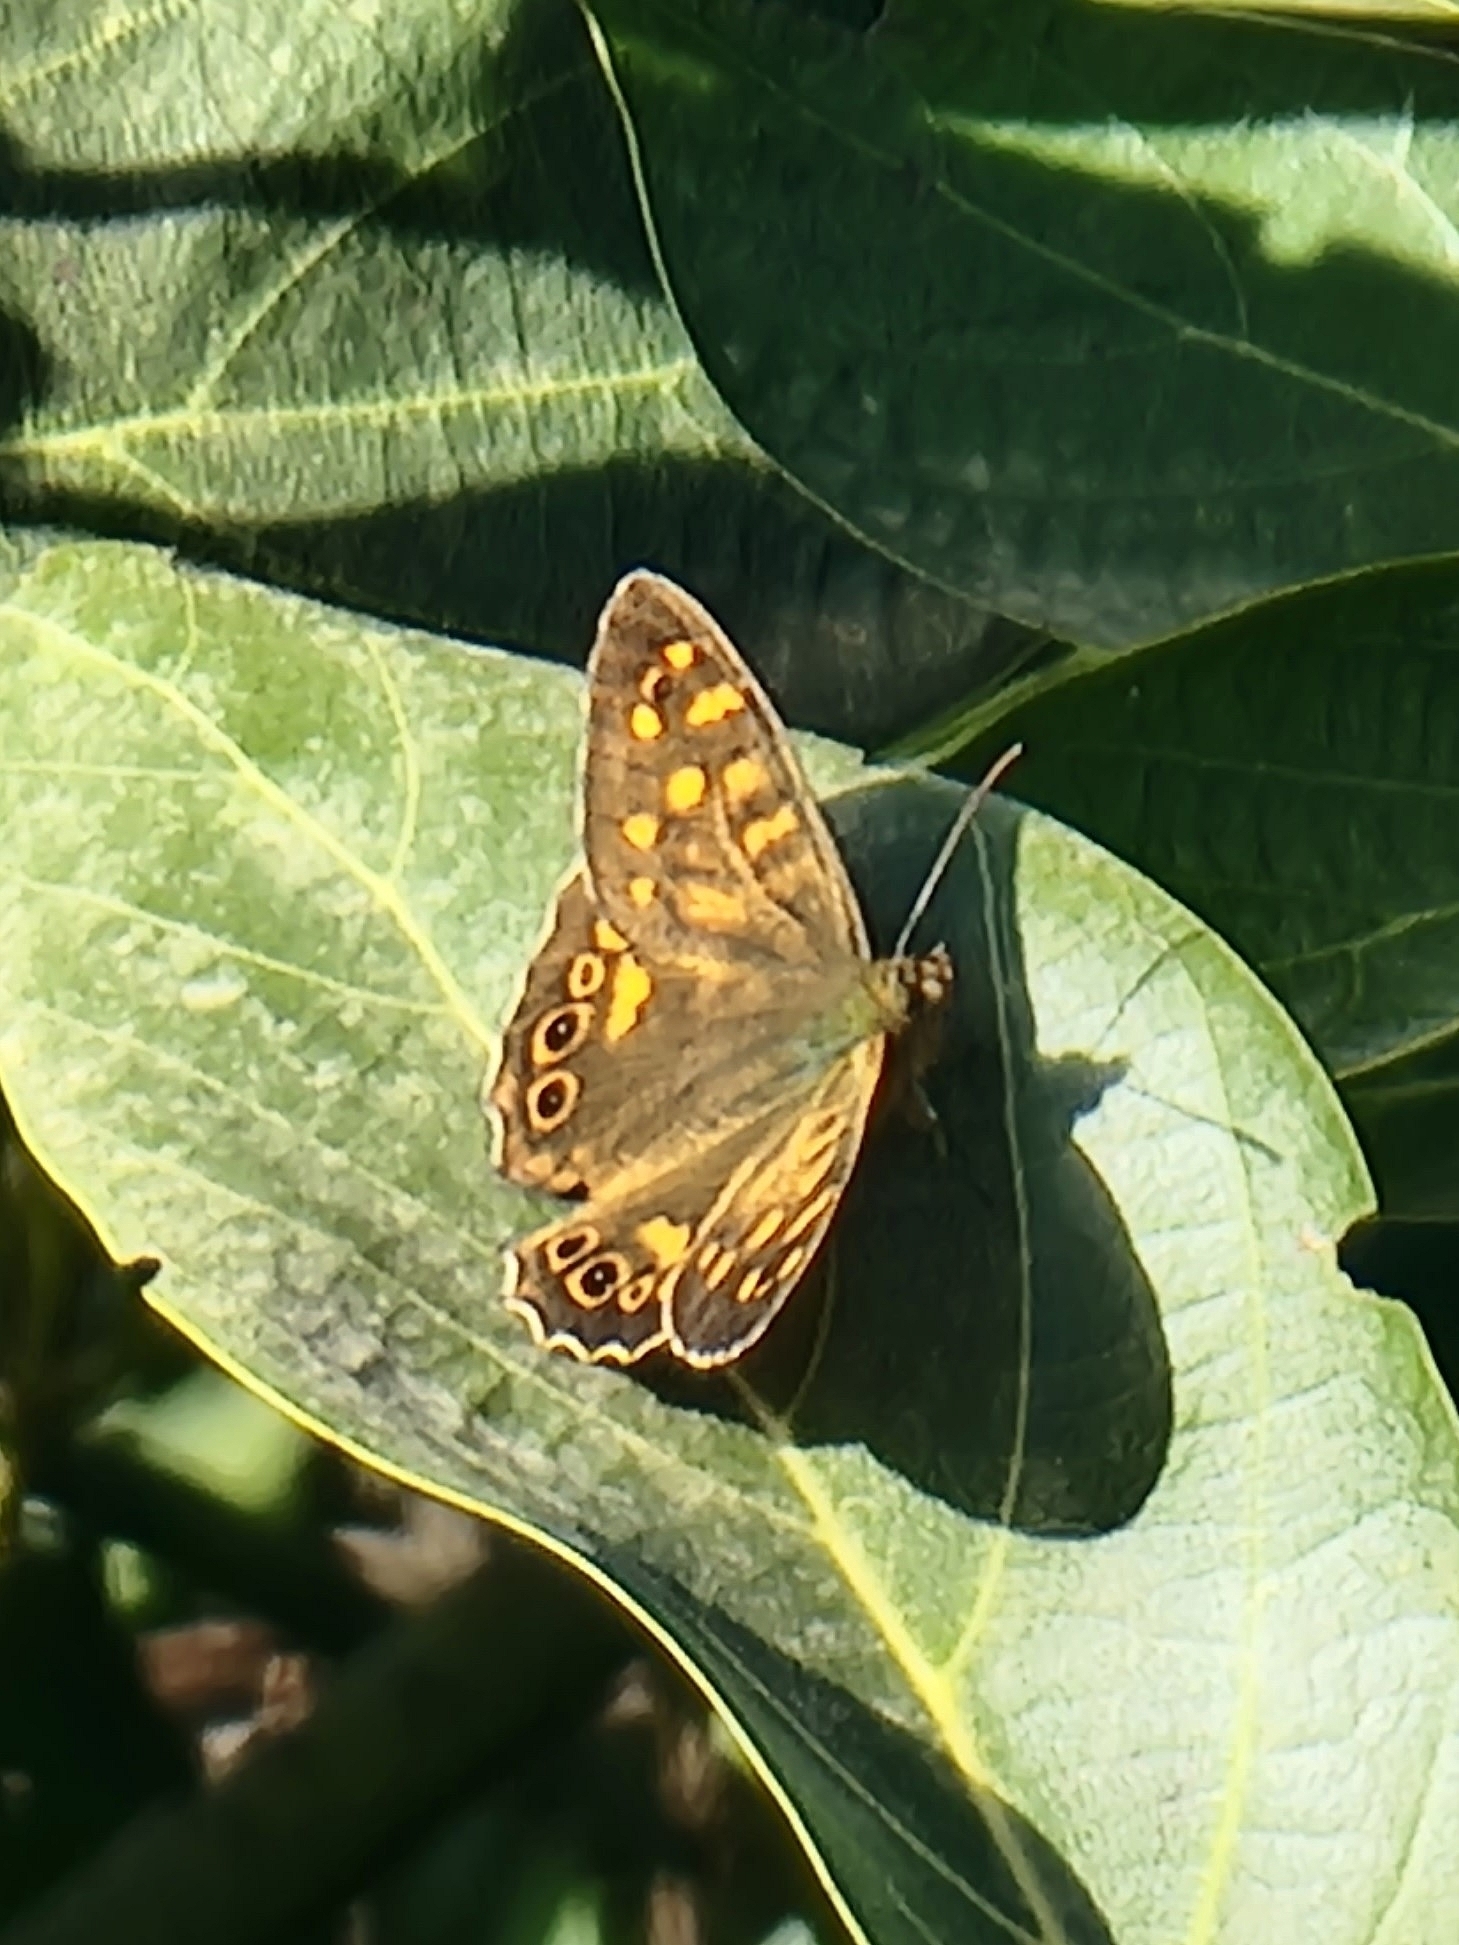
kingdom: Animalia
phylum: Arthropoda
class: Insecta
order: Lepidoptera
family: Nymphalidae
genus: Pararge
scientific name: Pararge
